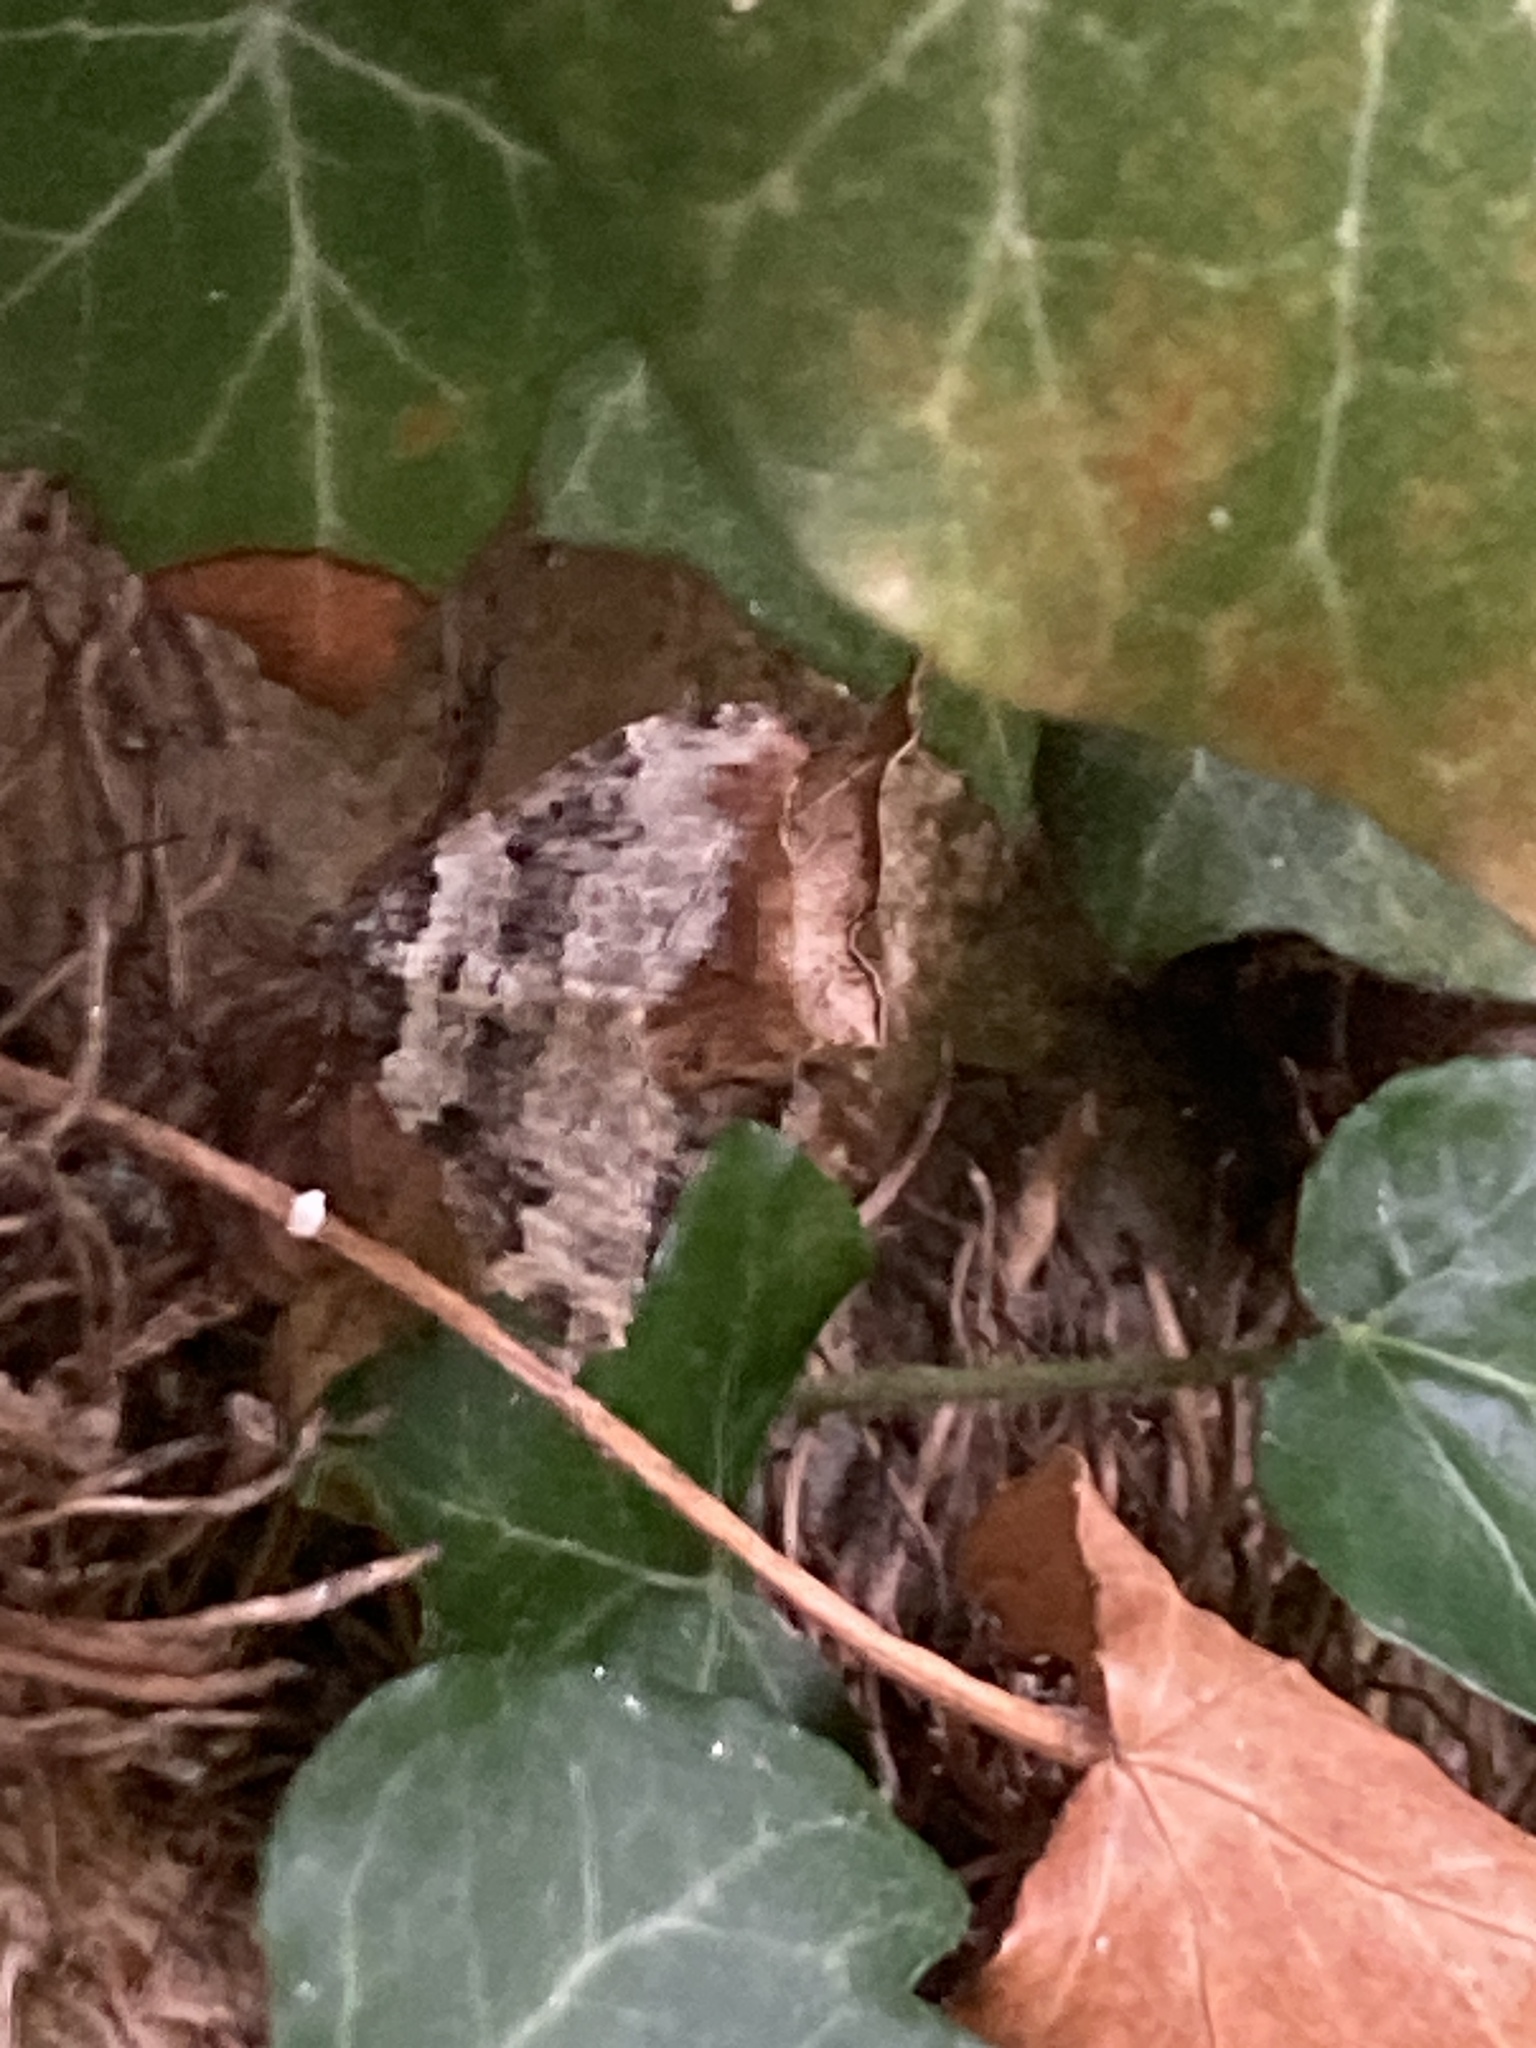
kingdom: Animalia
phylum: Arthropoda
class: Insecta
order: Lepidoptera
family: Geometridae
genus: Xanthorhoe
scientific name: Xanthorhoe fluctuata
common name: Garden carpet
